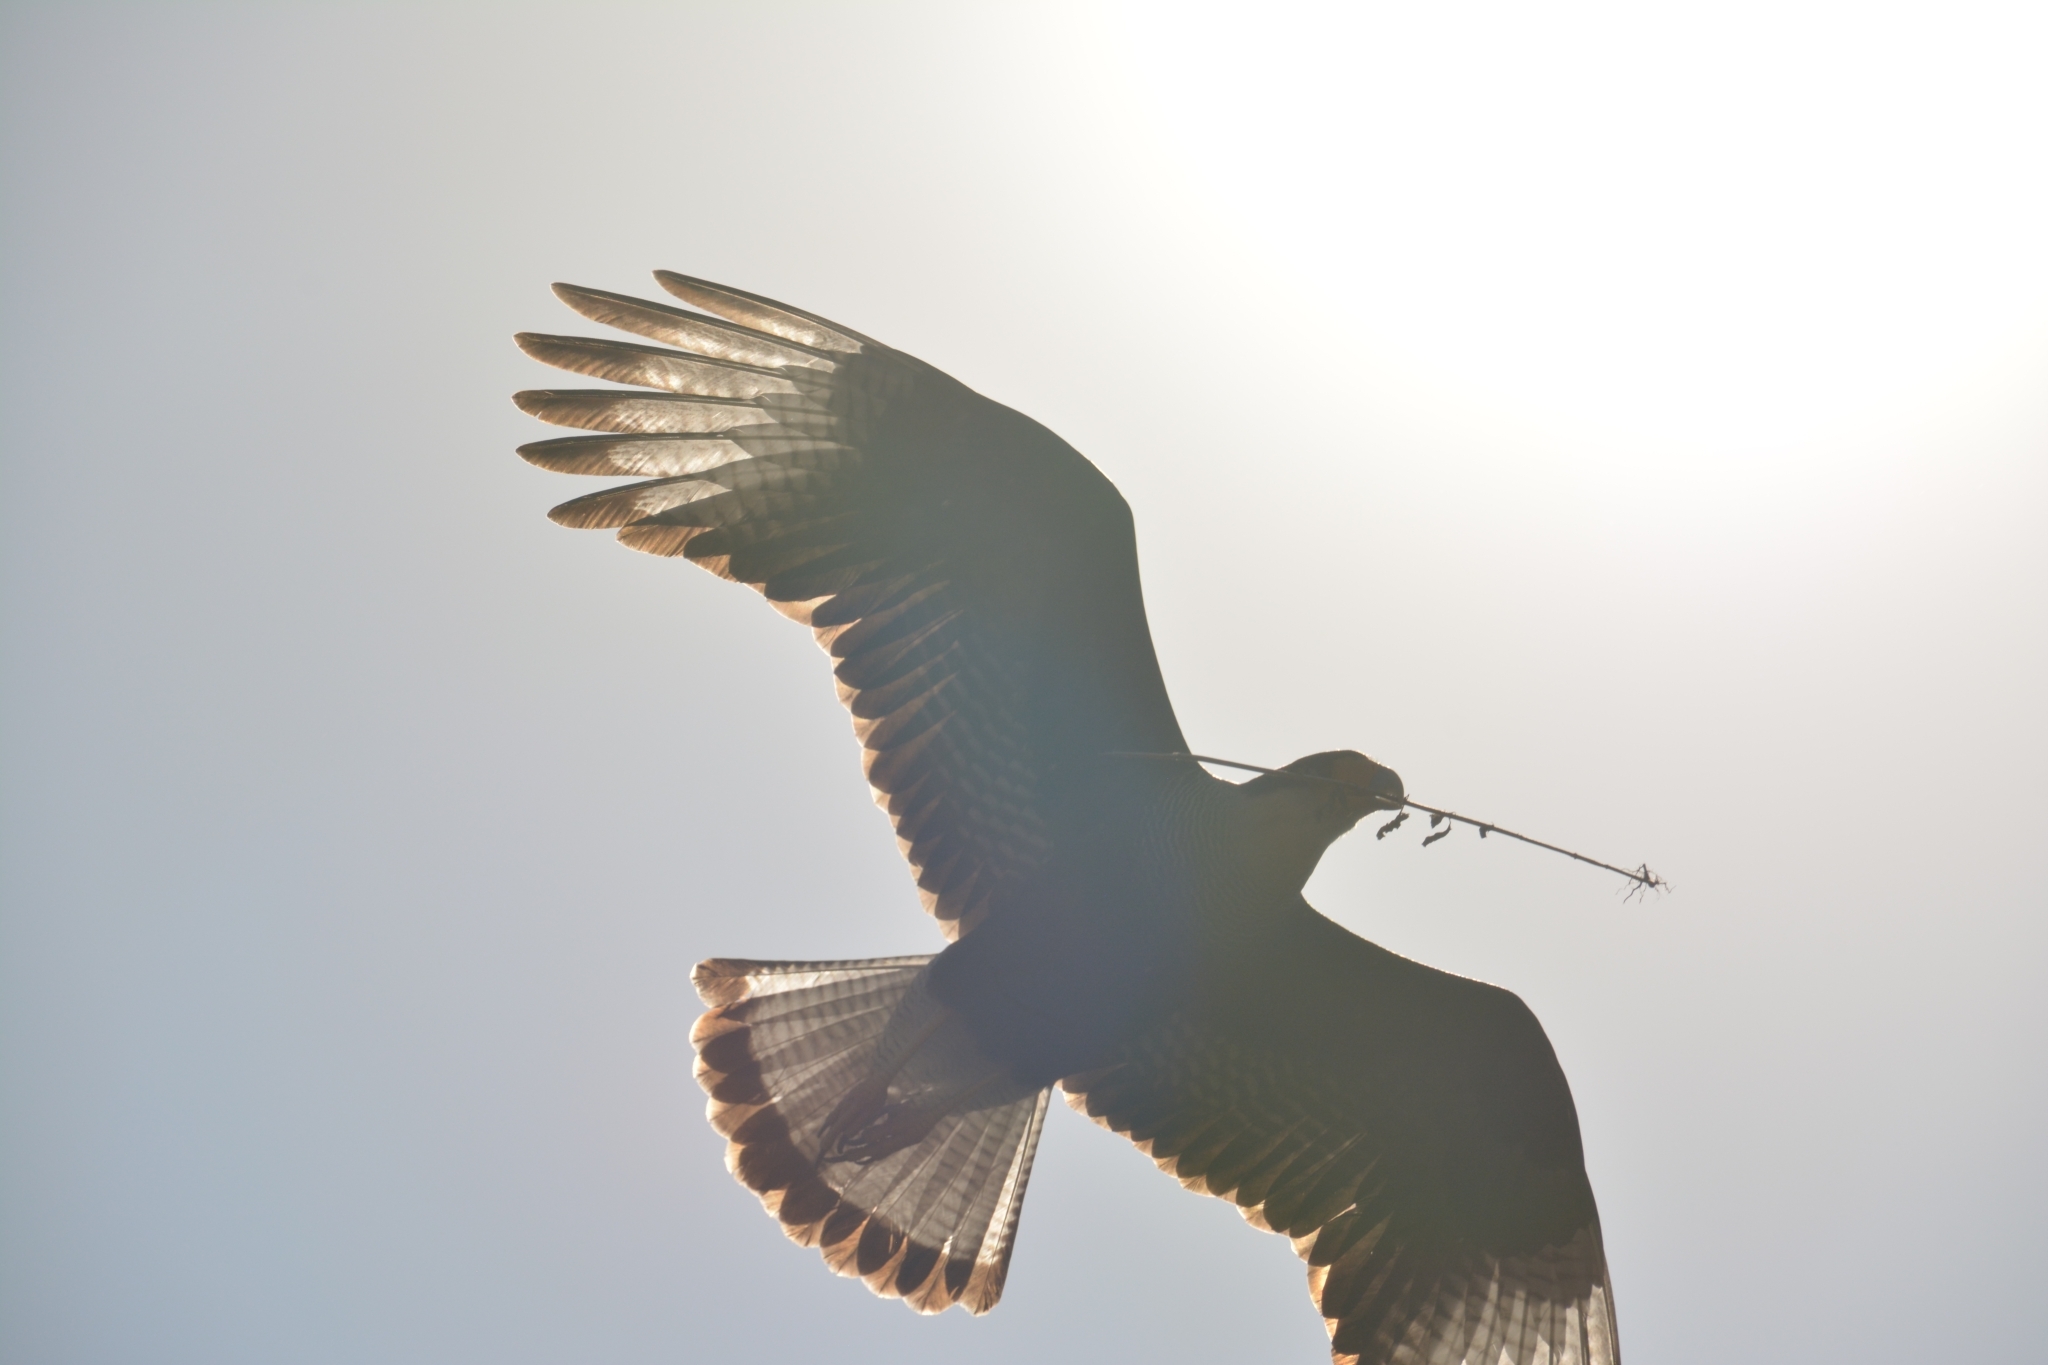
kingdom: Animalia
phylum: Chordata
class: Aves
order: Falconiformes
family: Falconidae
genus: Caracara
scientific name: Caracara plancus
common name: Southern caracara
